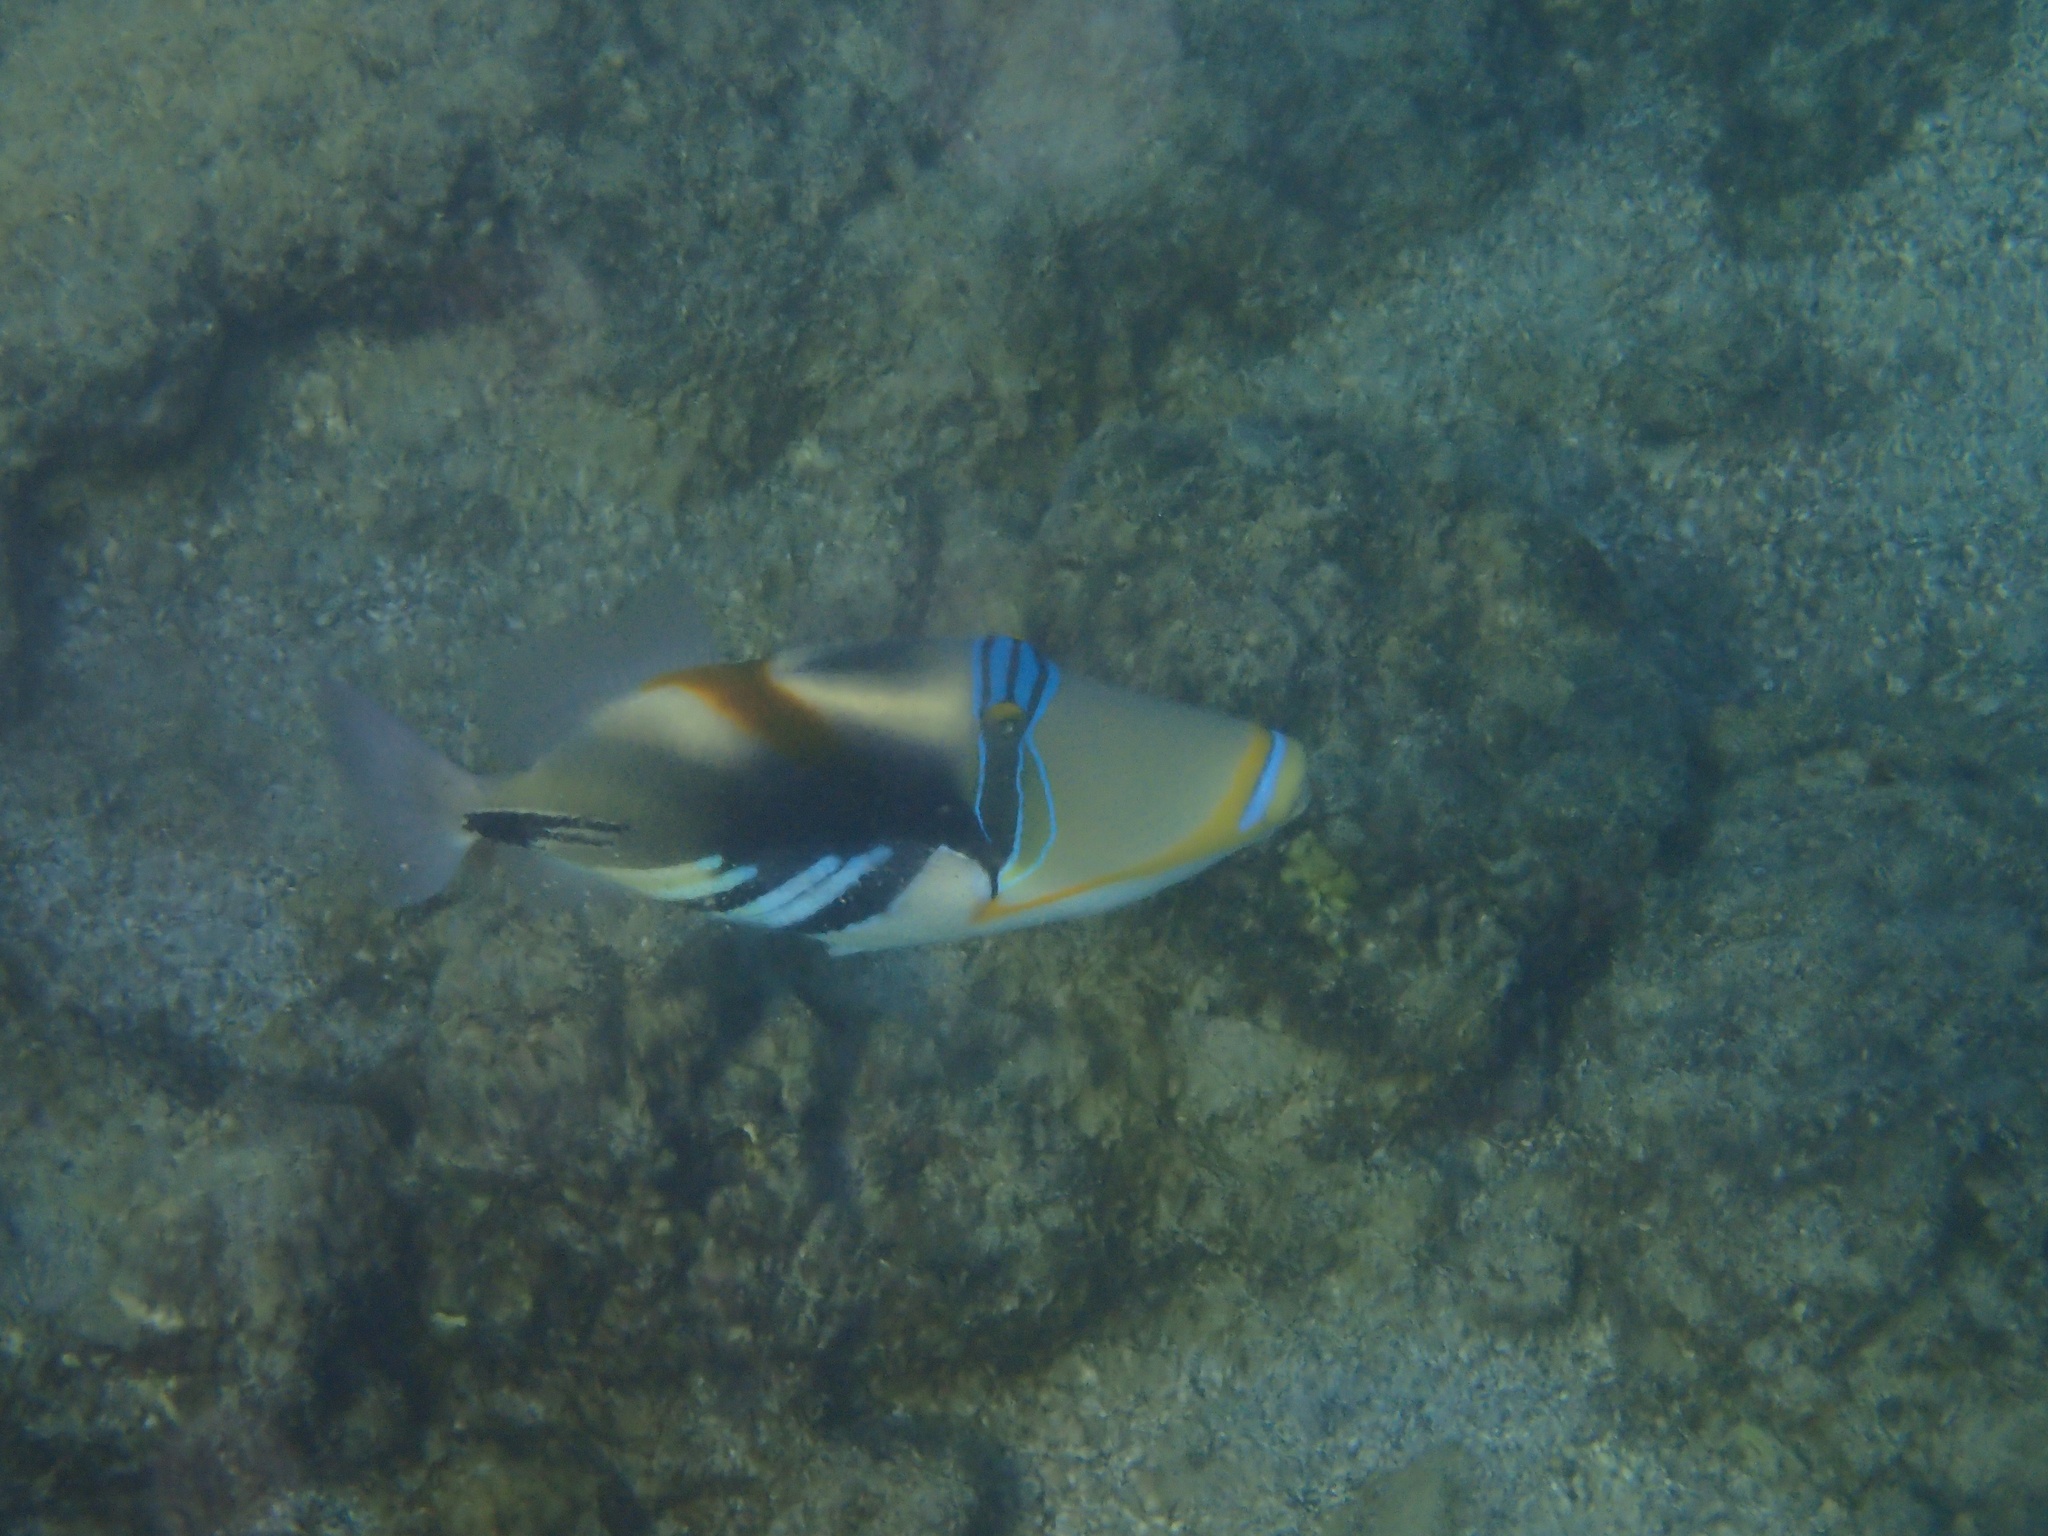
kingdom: Animalia
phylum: Chordata
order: Tetraodontiformes
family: Balistidae
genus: Rhinecanthus
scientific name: Rhinecanthus aculeatus
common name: White-banded triggerfish
